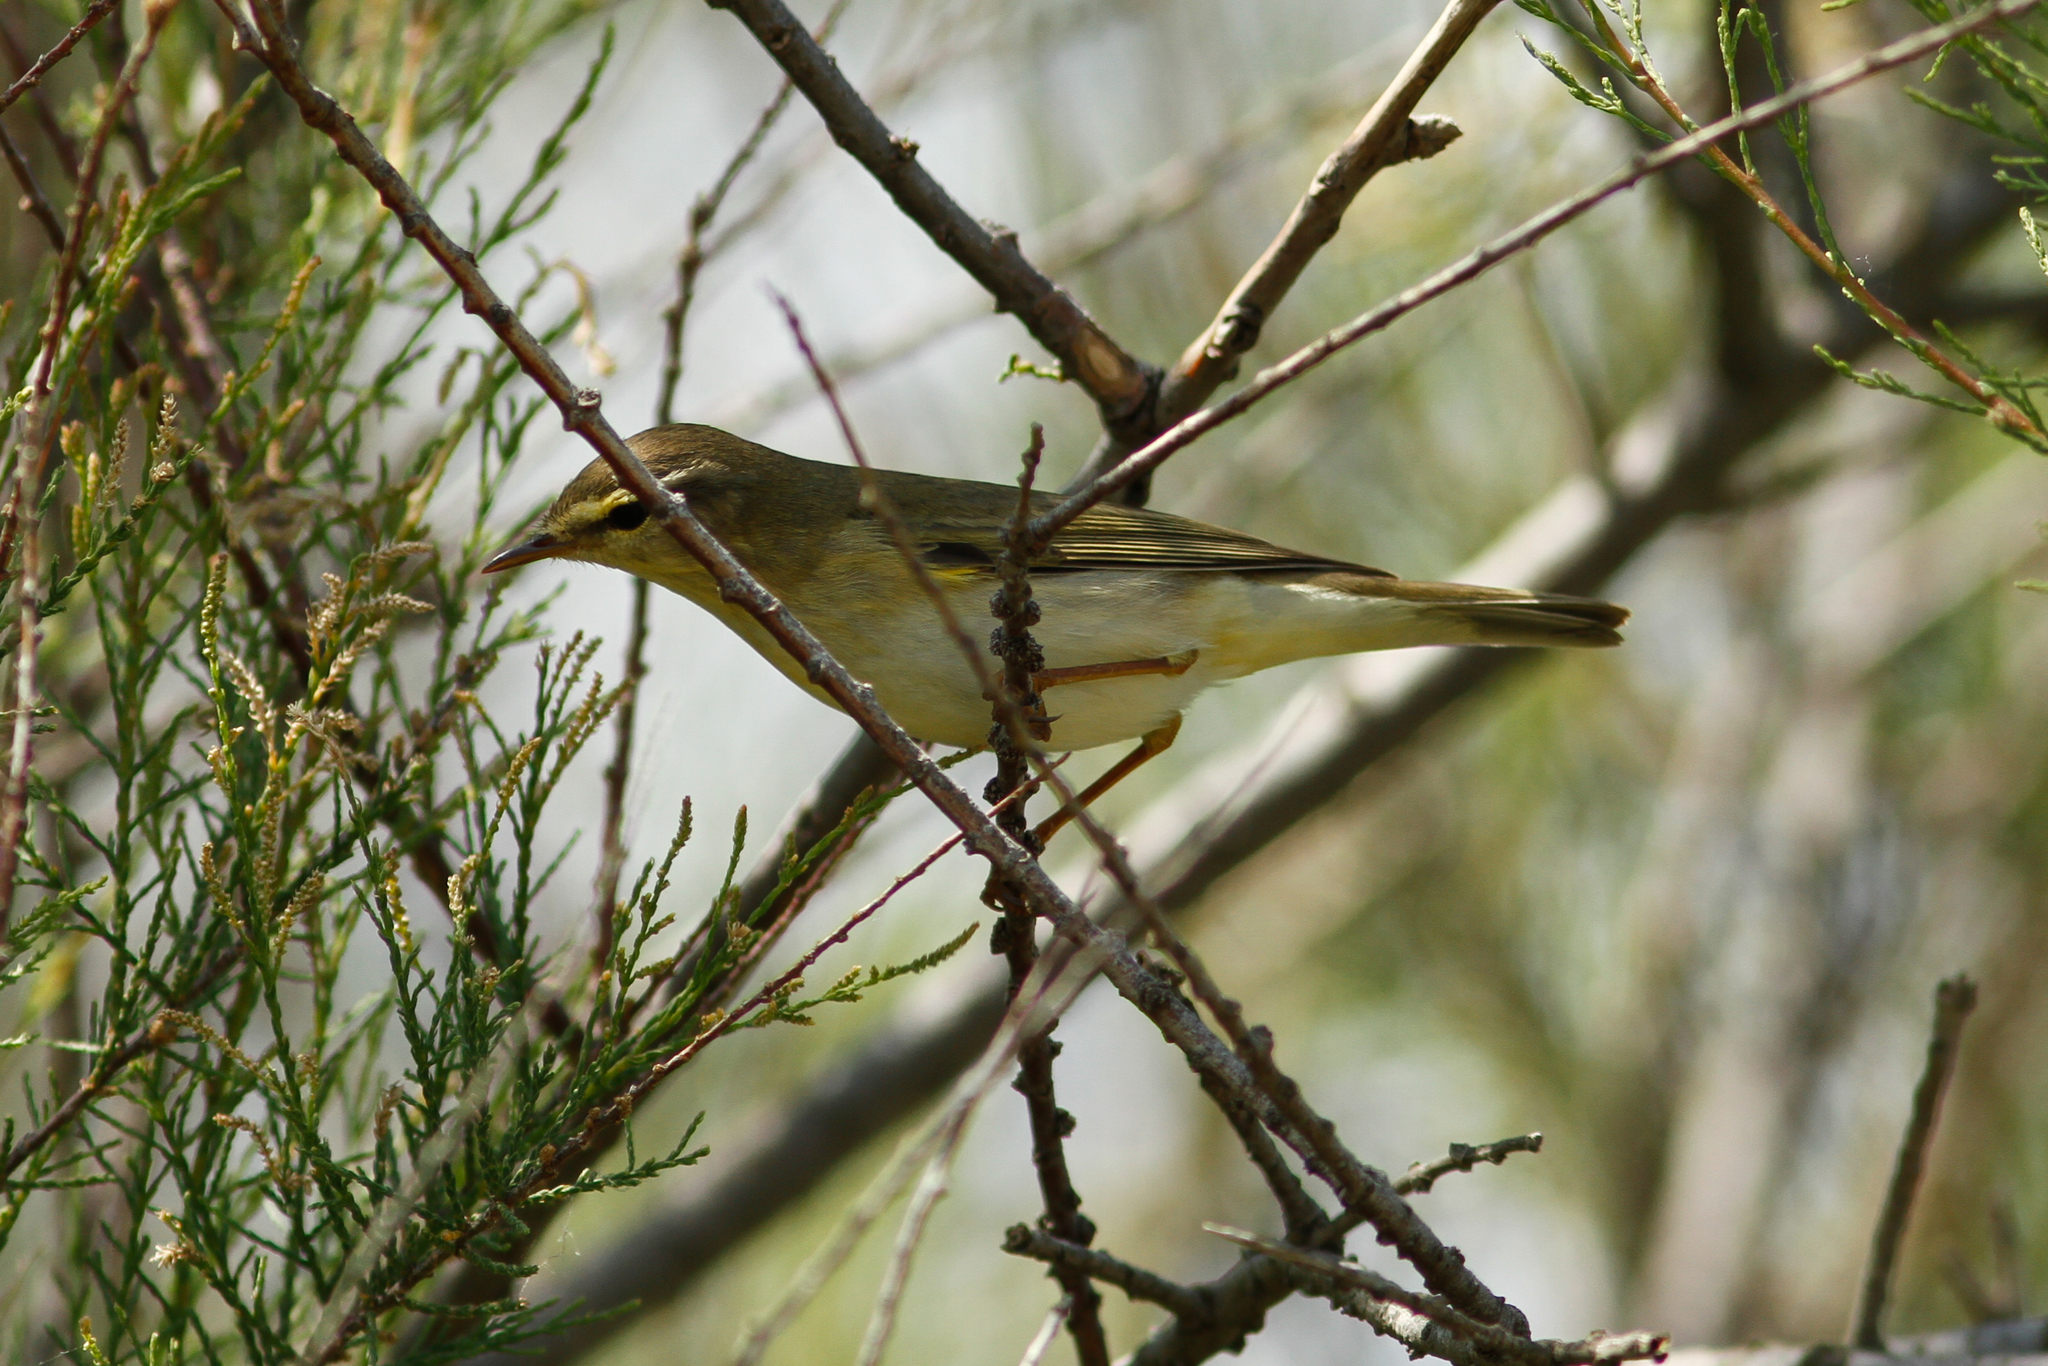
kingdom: Animalia
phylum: Chordata
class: Aves
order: Passeriformes
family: Phylloscopidae
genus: Phylloscopus
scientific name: Phylloscopus trochilus
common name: Willow warbler
